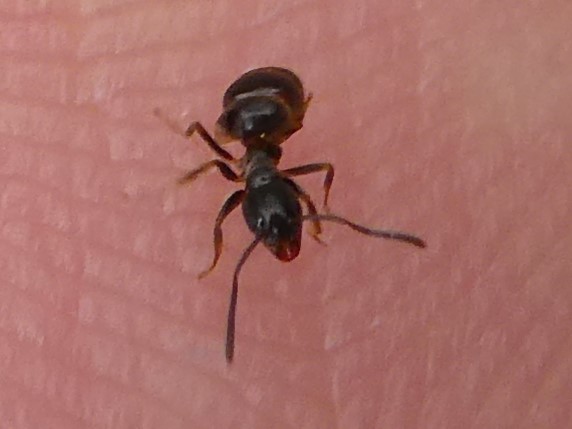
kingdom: Animalia
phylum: Arthropoda
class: Insecta
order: Hymenoptera
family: Formicidae
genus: Tapinoma
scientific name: Tapinoma sessile
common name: Odorous house ant
